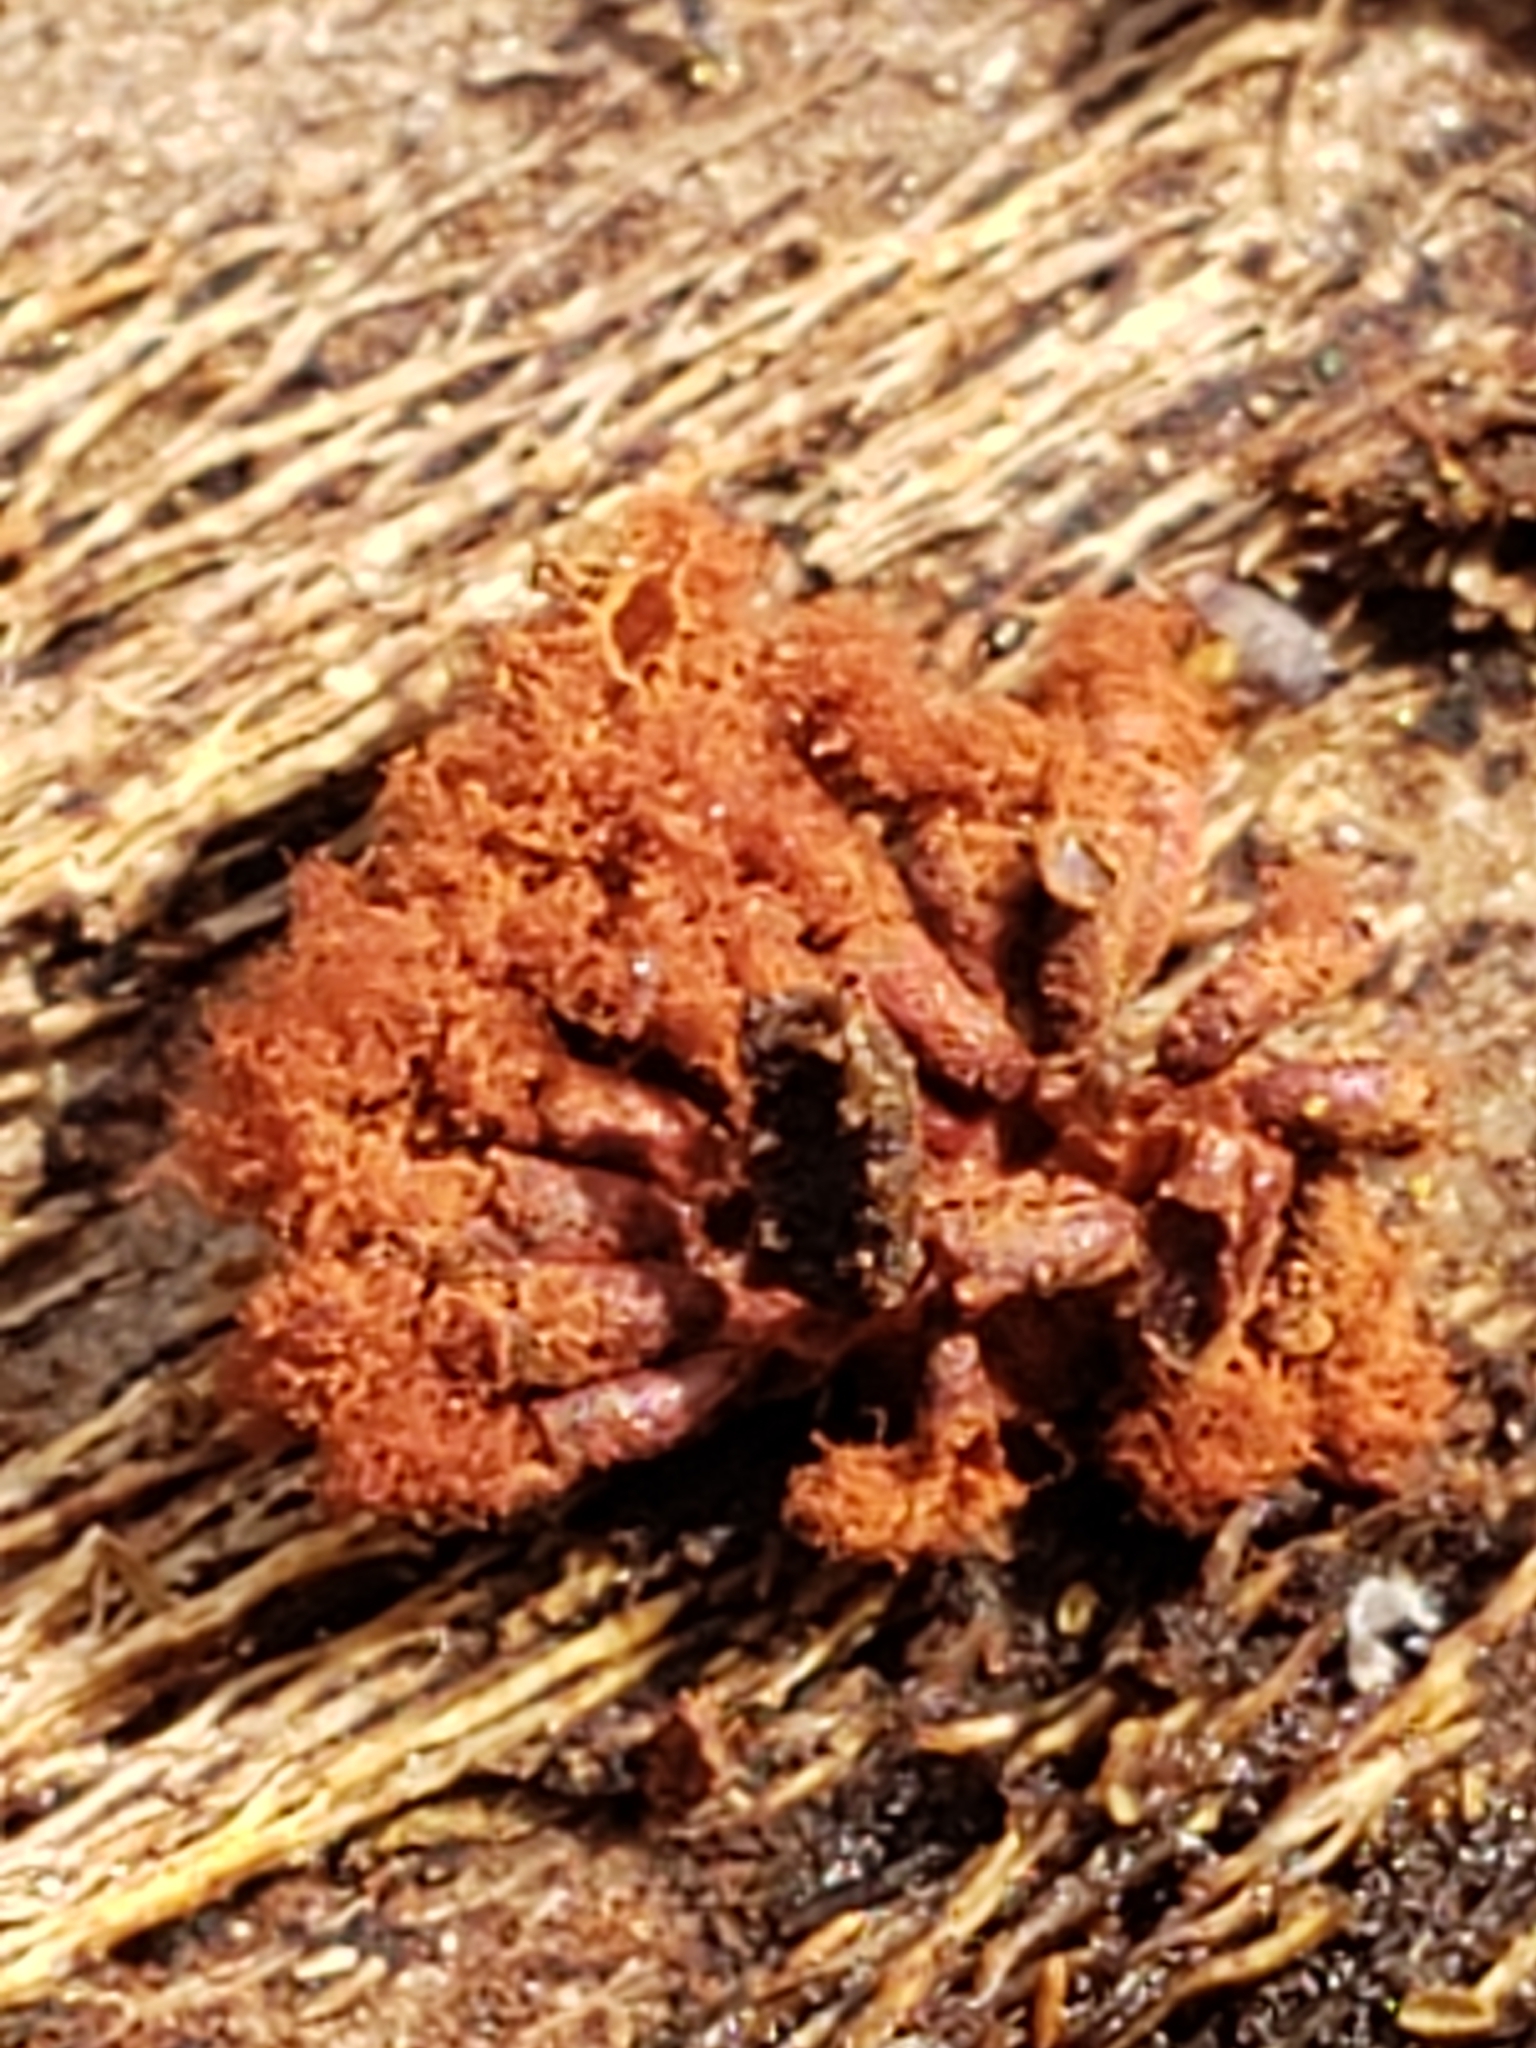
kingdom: Protozoa
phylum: Mycetozoa
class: Myxomycetes
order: Trichiales
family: Trichiaceae
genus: Metatrichia
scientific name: Metatrichia vesparia
